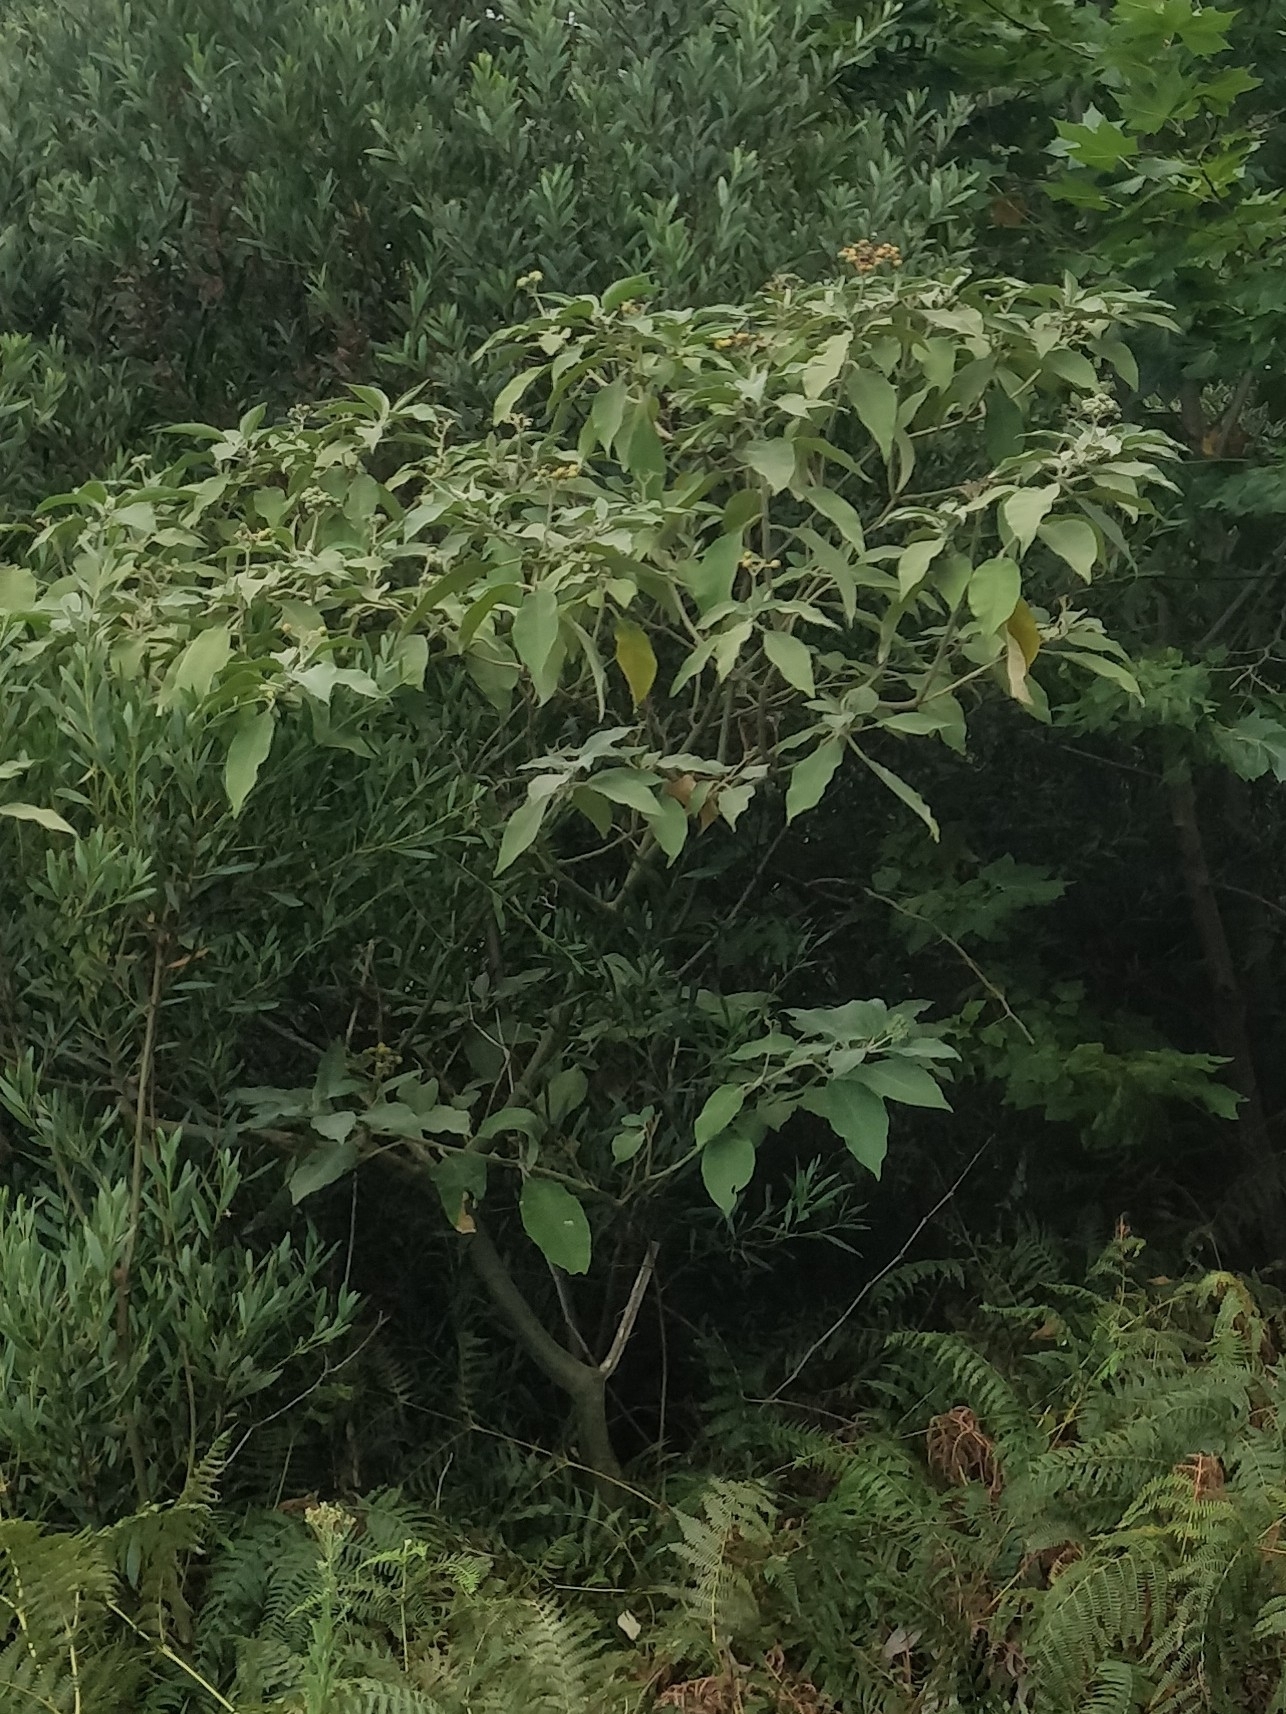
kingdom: Plantae
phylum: Tracheophyta
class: Magnoliopsida
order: Solanales
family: Solanaceae
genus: Solanum
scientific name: Solanum mauritianum
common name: Earleaf nightshade
